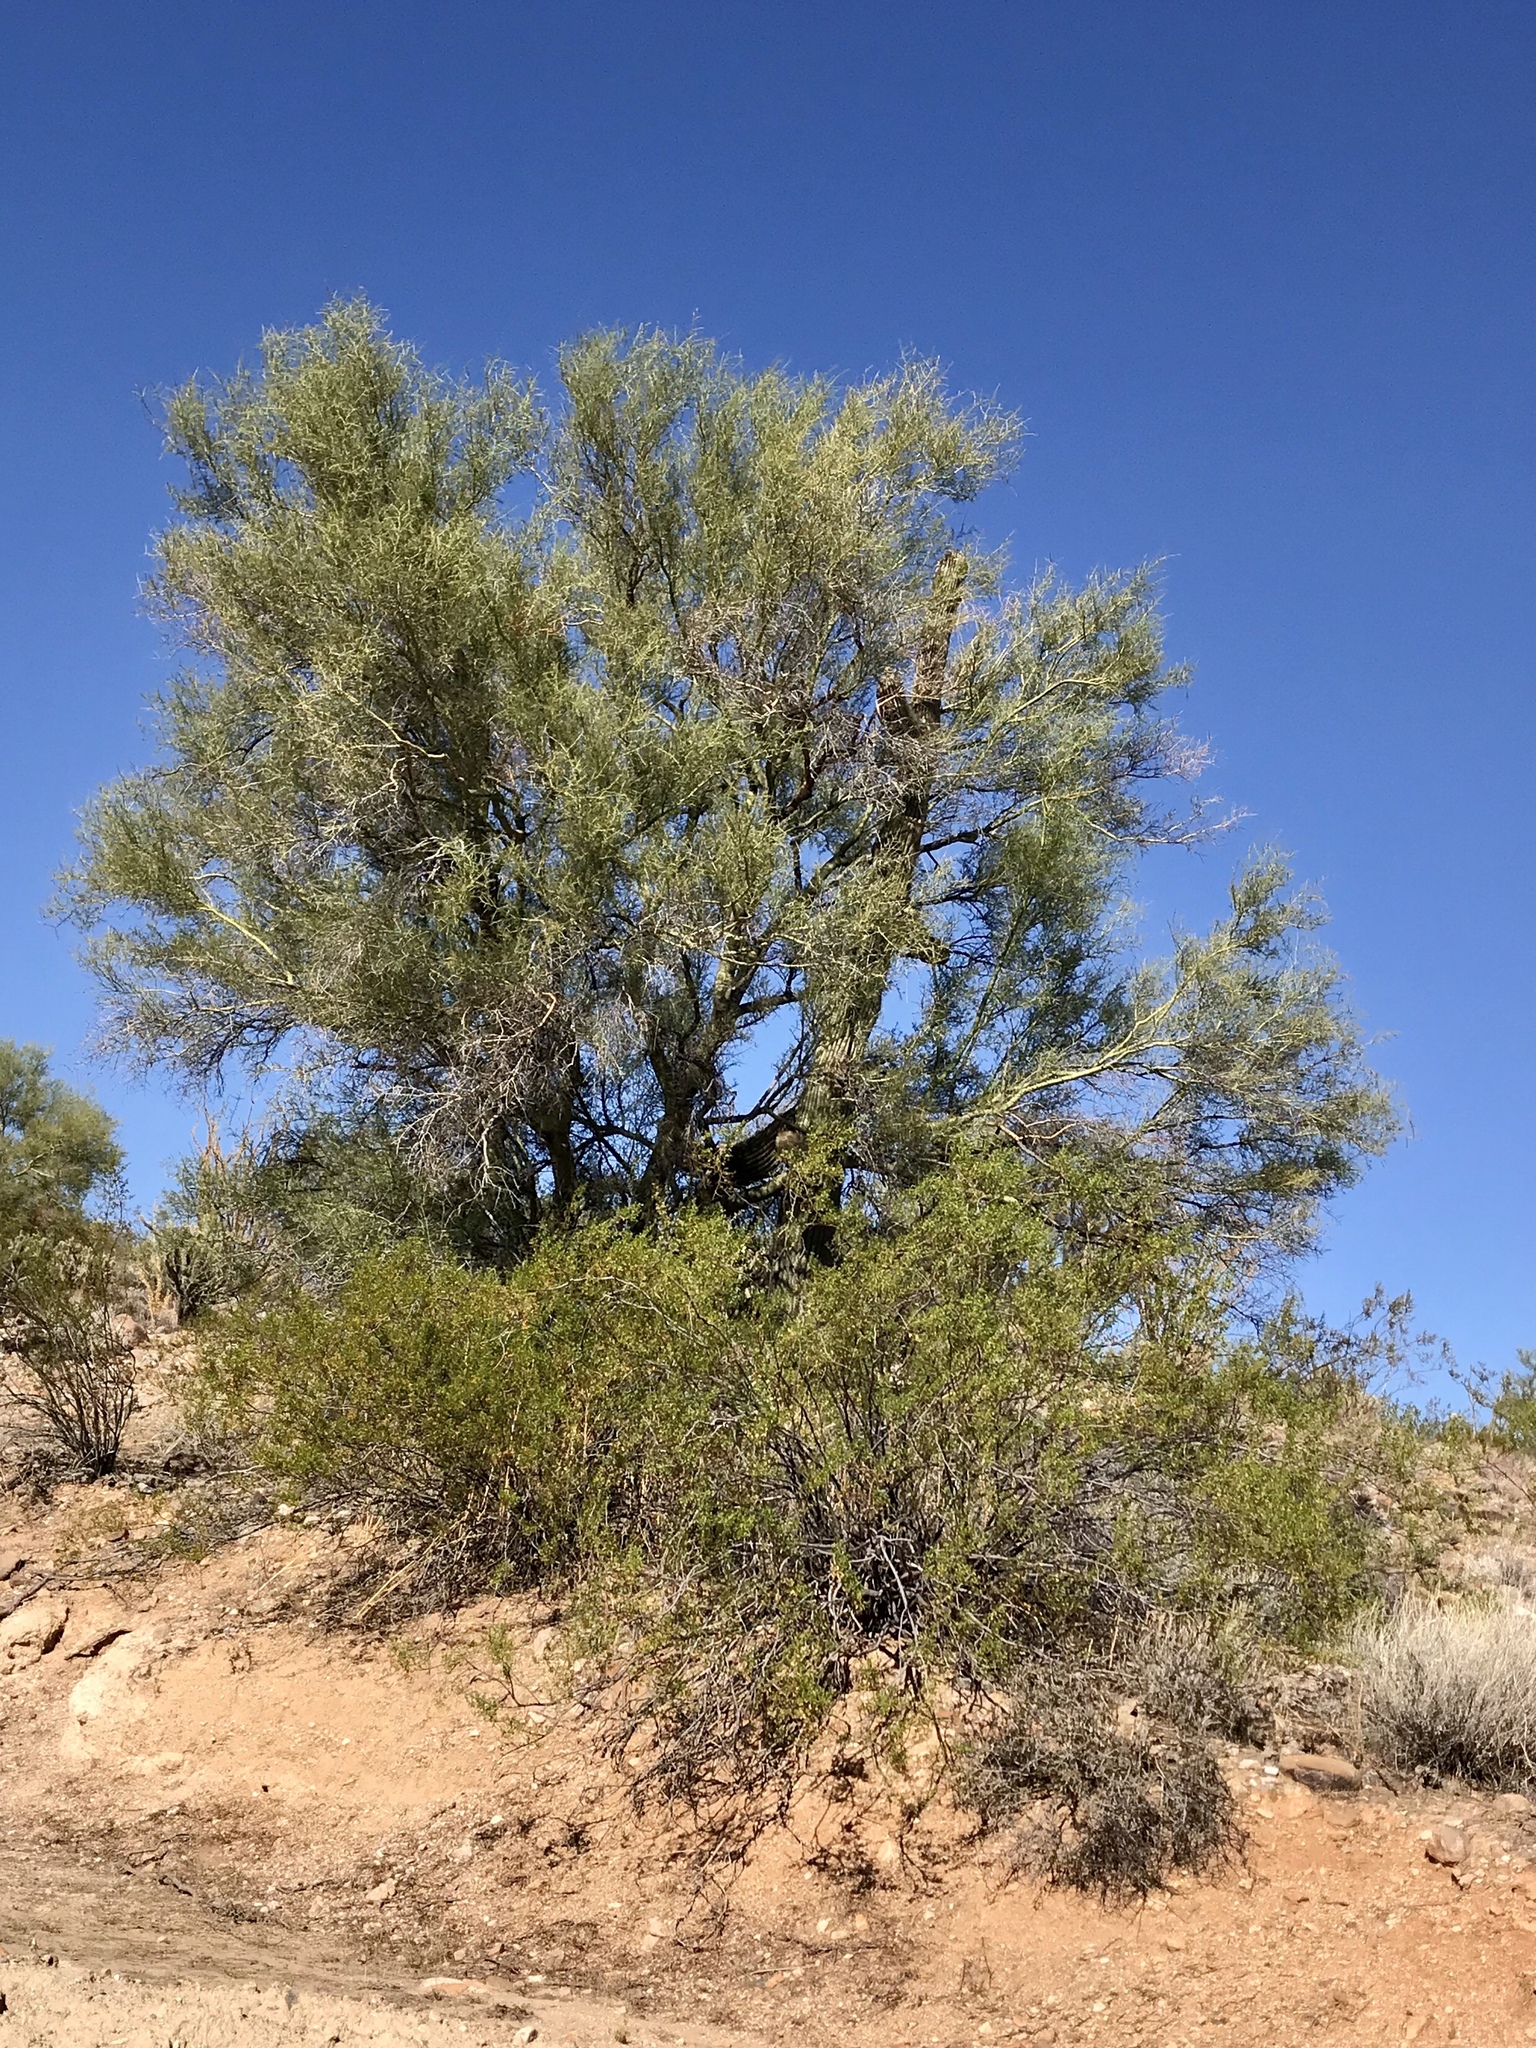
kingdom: Plantae
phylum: Tracheophyta
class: Magnoliopsida
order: Fabales
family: Fabaceae
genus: Parkinsonia
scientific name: Parkinsonia microphylla
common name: Yellow paloverde
